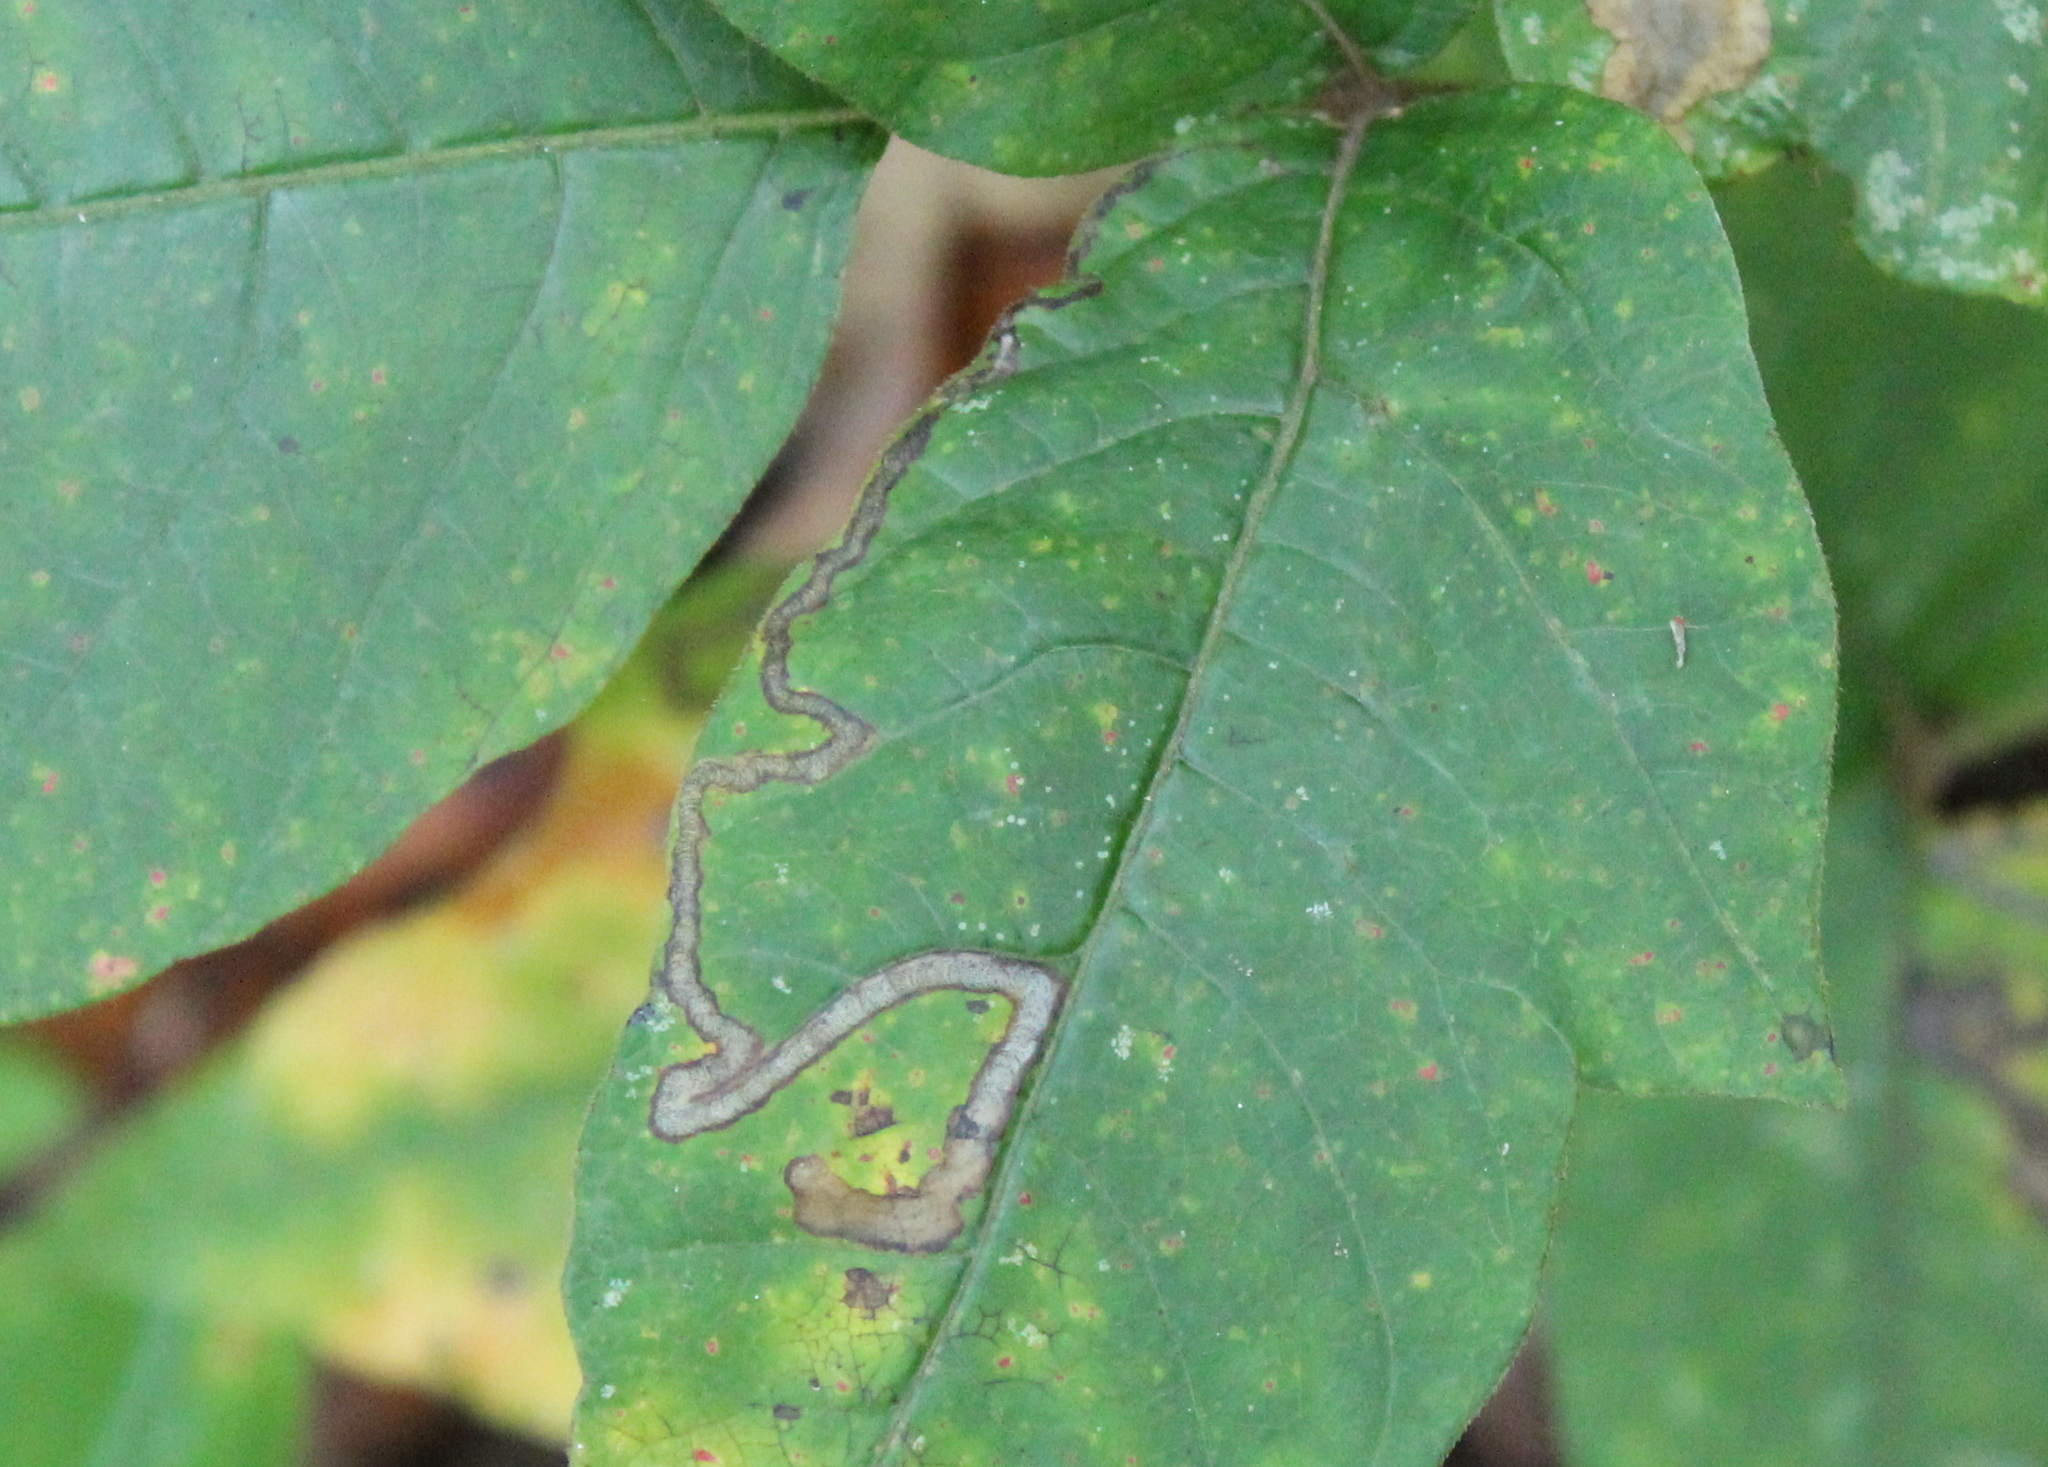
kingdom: Animalia
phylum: Arthropoda
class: Insecta
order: Lepidoptera
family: Nepticulidae
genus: Stigmella
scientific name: Stigmella rhoifoliella
